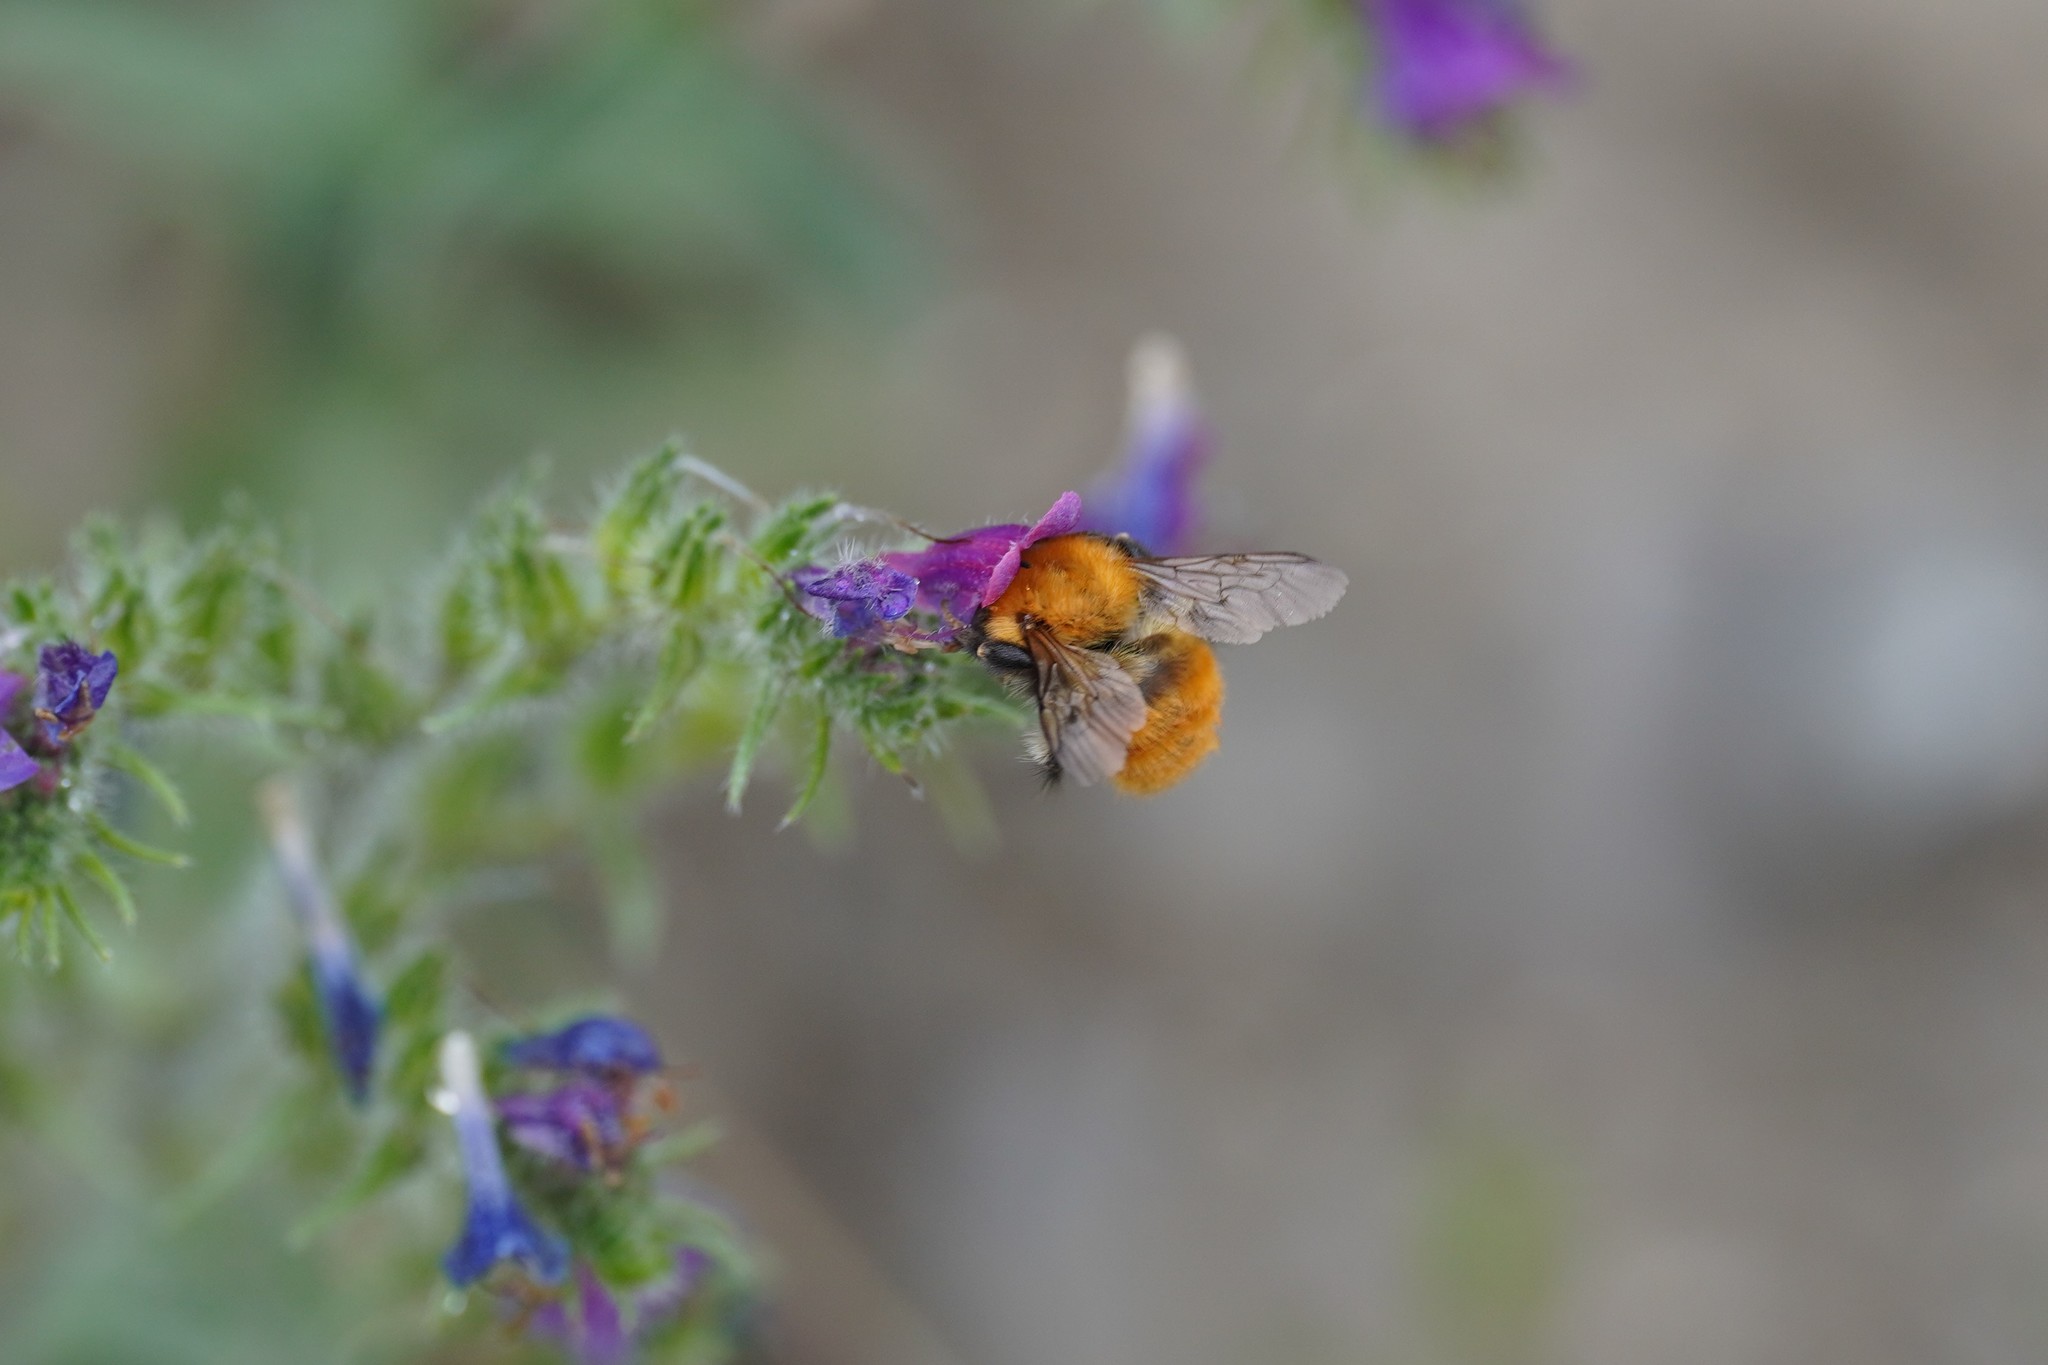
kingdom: Animalia
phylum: Arthropoda
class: Insecta
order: Hymenoptera
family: Apidae
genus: Bombus
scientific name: Bombus pascuorum
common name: Common carder bee
